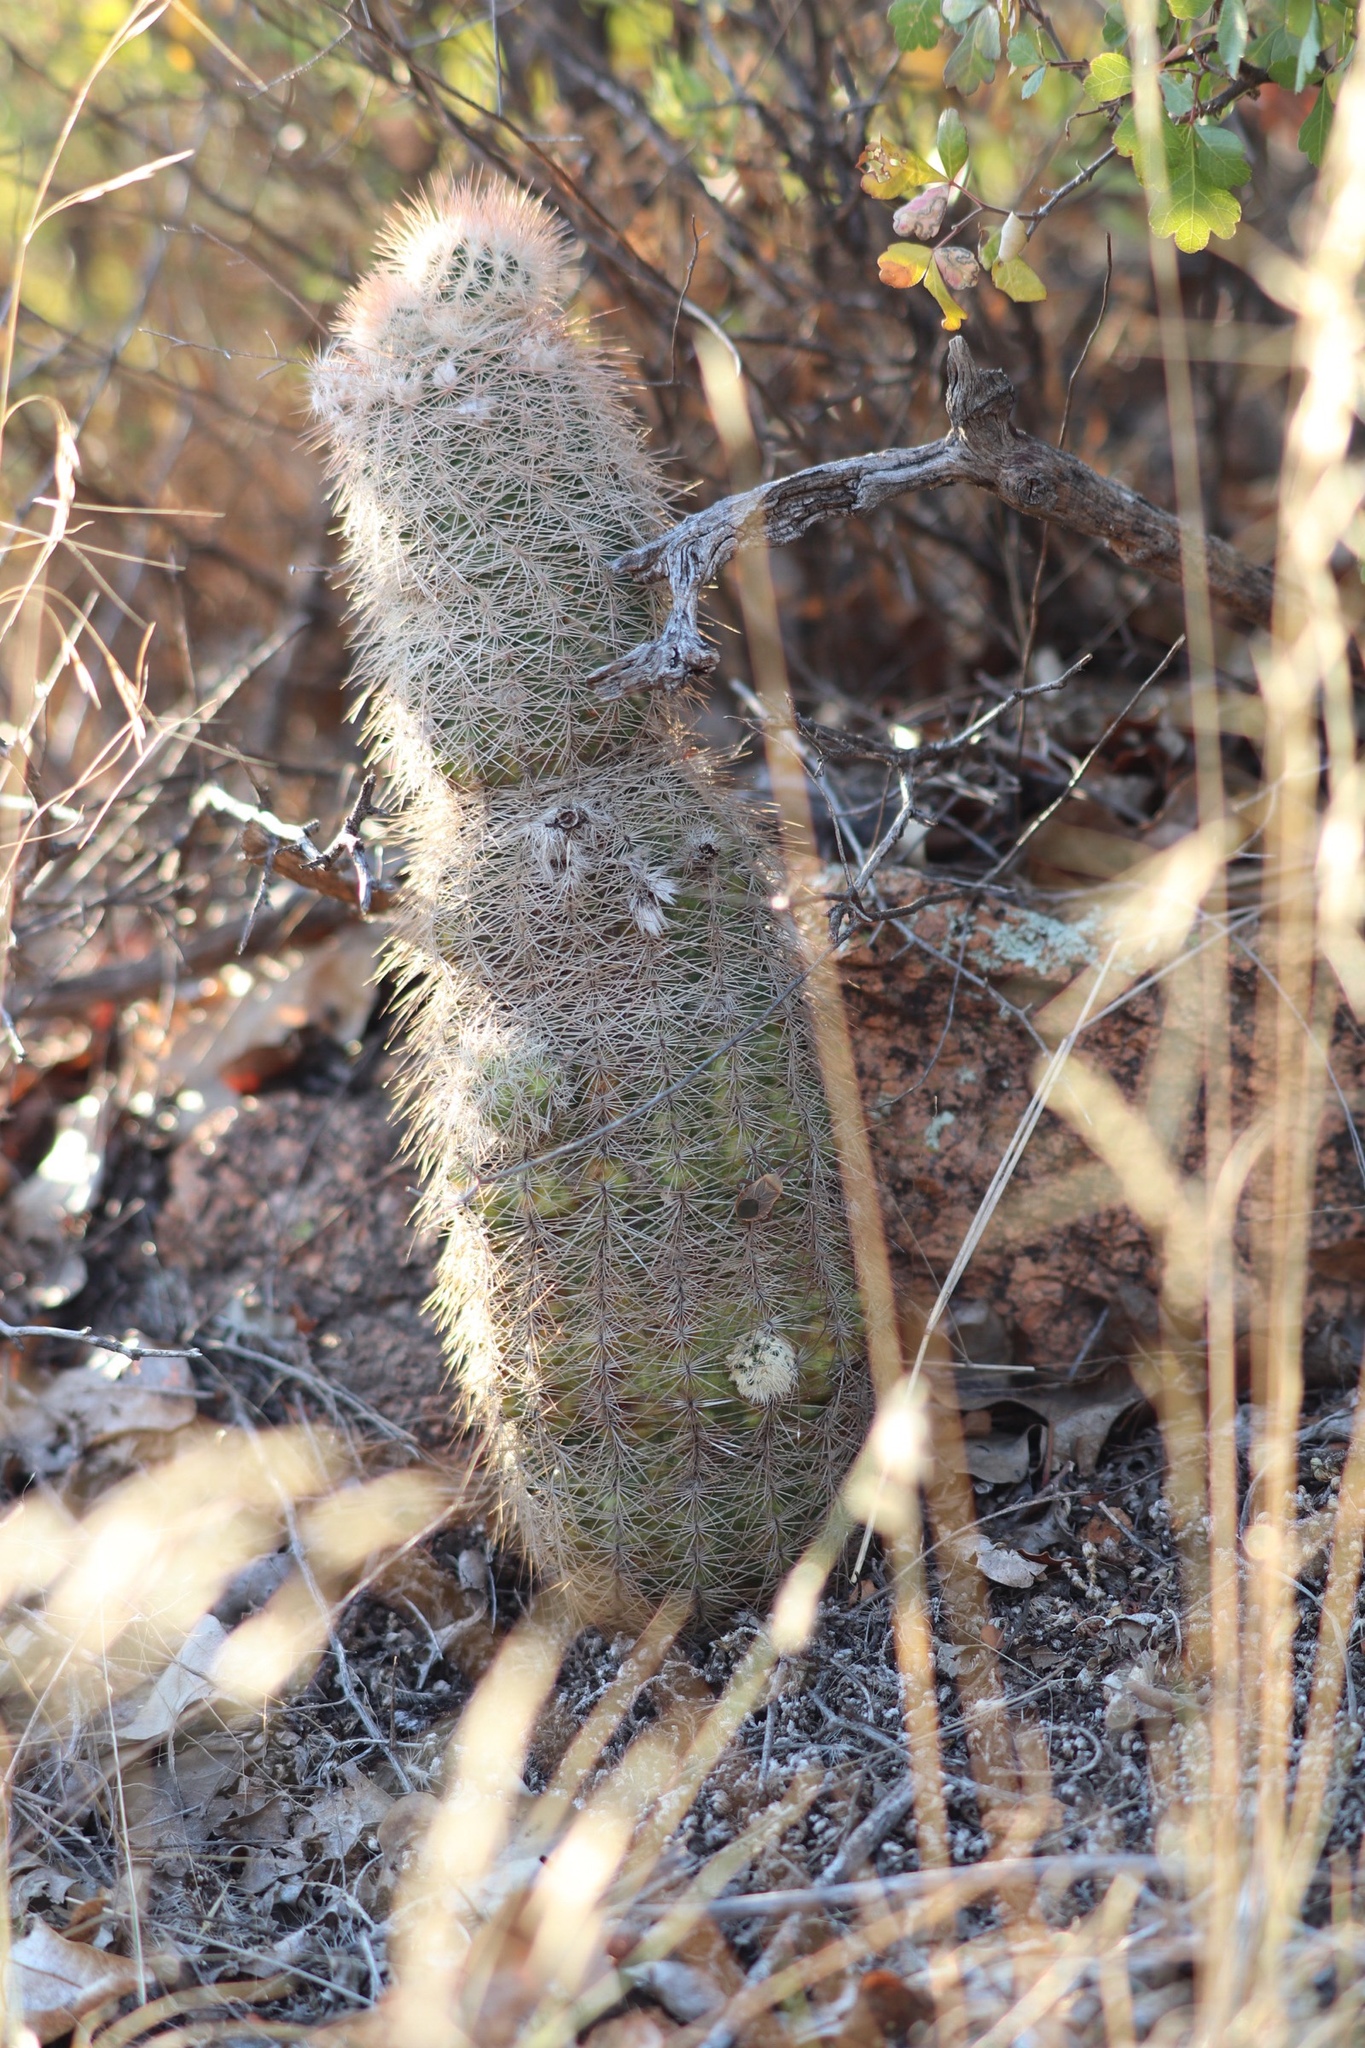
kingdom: Plantae
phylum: Tracheophyta
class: Magnoliopsida
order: Caryophyllales
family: Cactaceae
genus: Echinocereus
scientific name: Echinocereus reichenbachii
